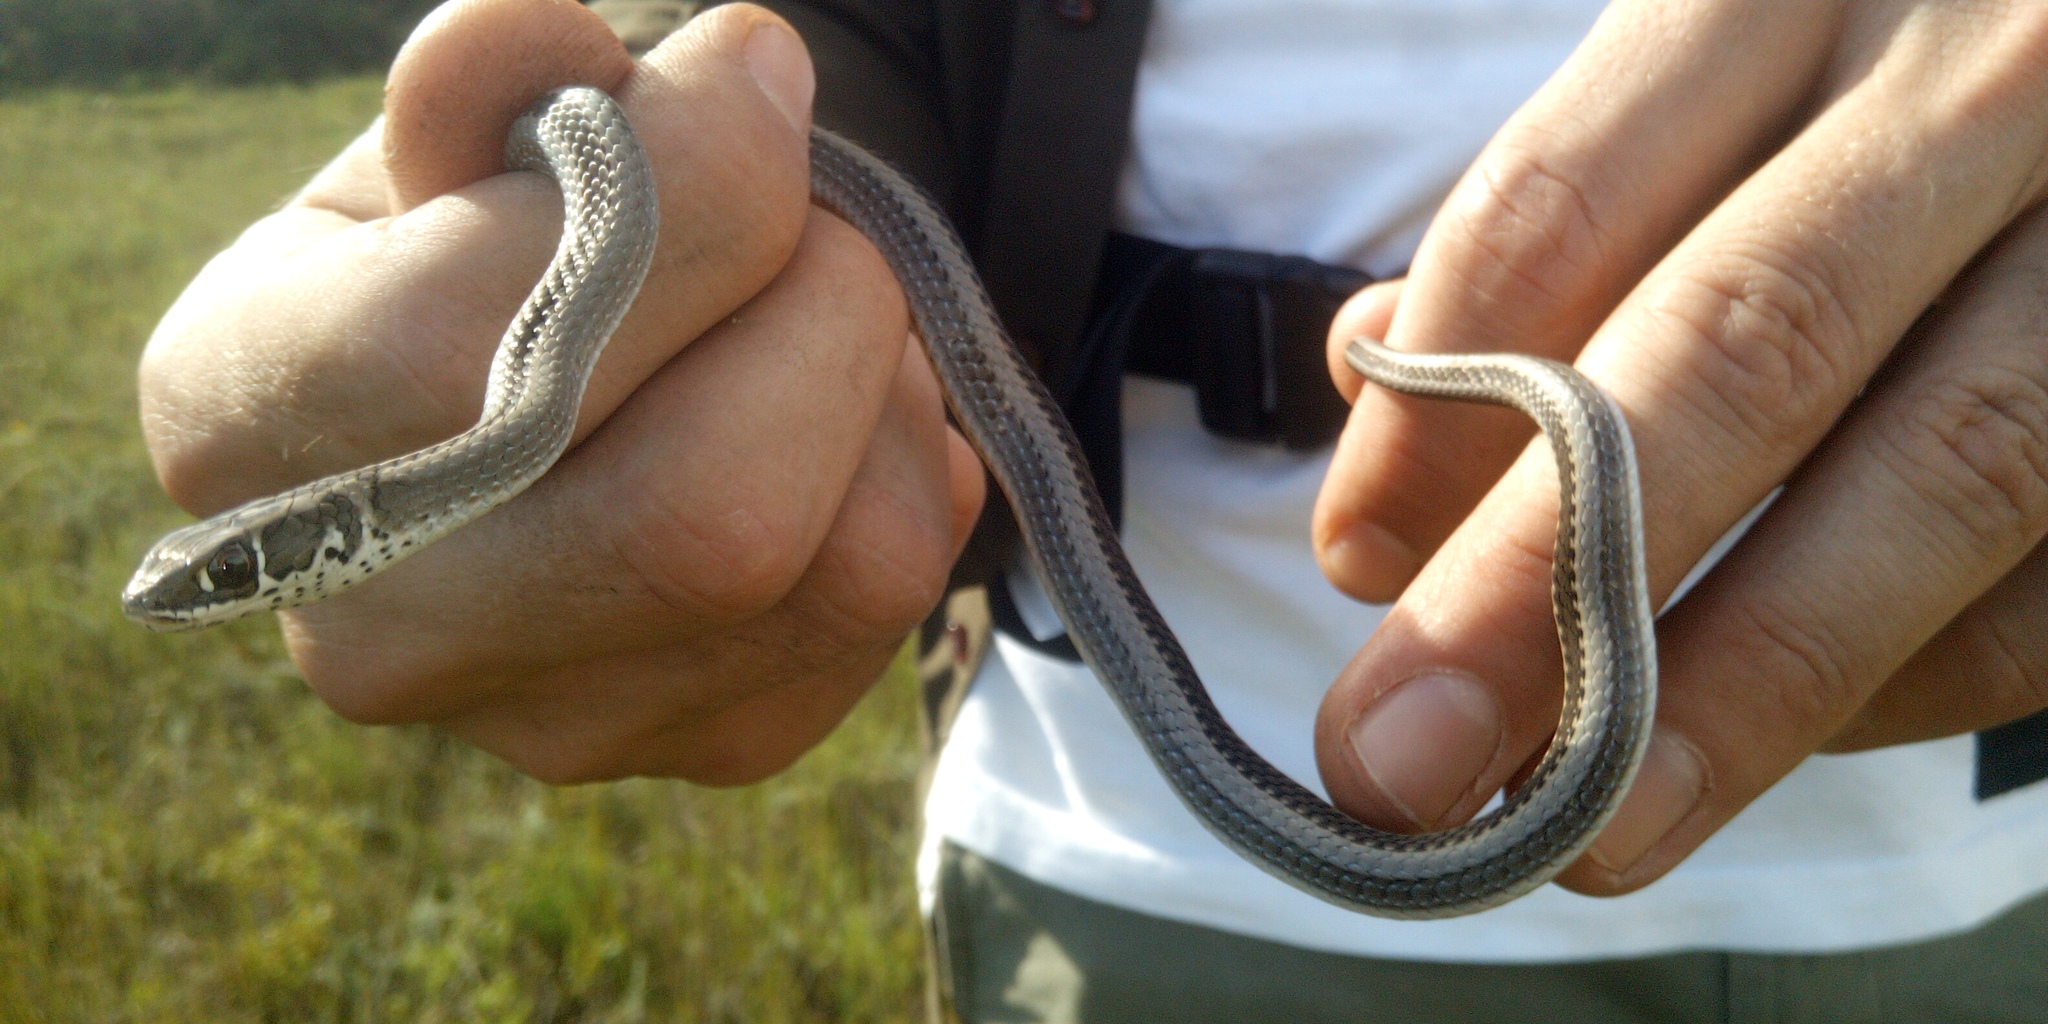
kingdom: Animalia
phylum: Chordata
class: Squamata
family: Psammophiidae
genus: Psammophis
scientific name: Psammophis crucifer
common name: Cross-marked grass snake
